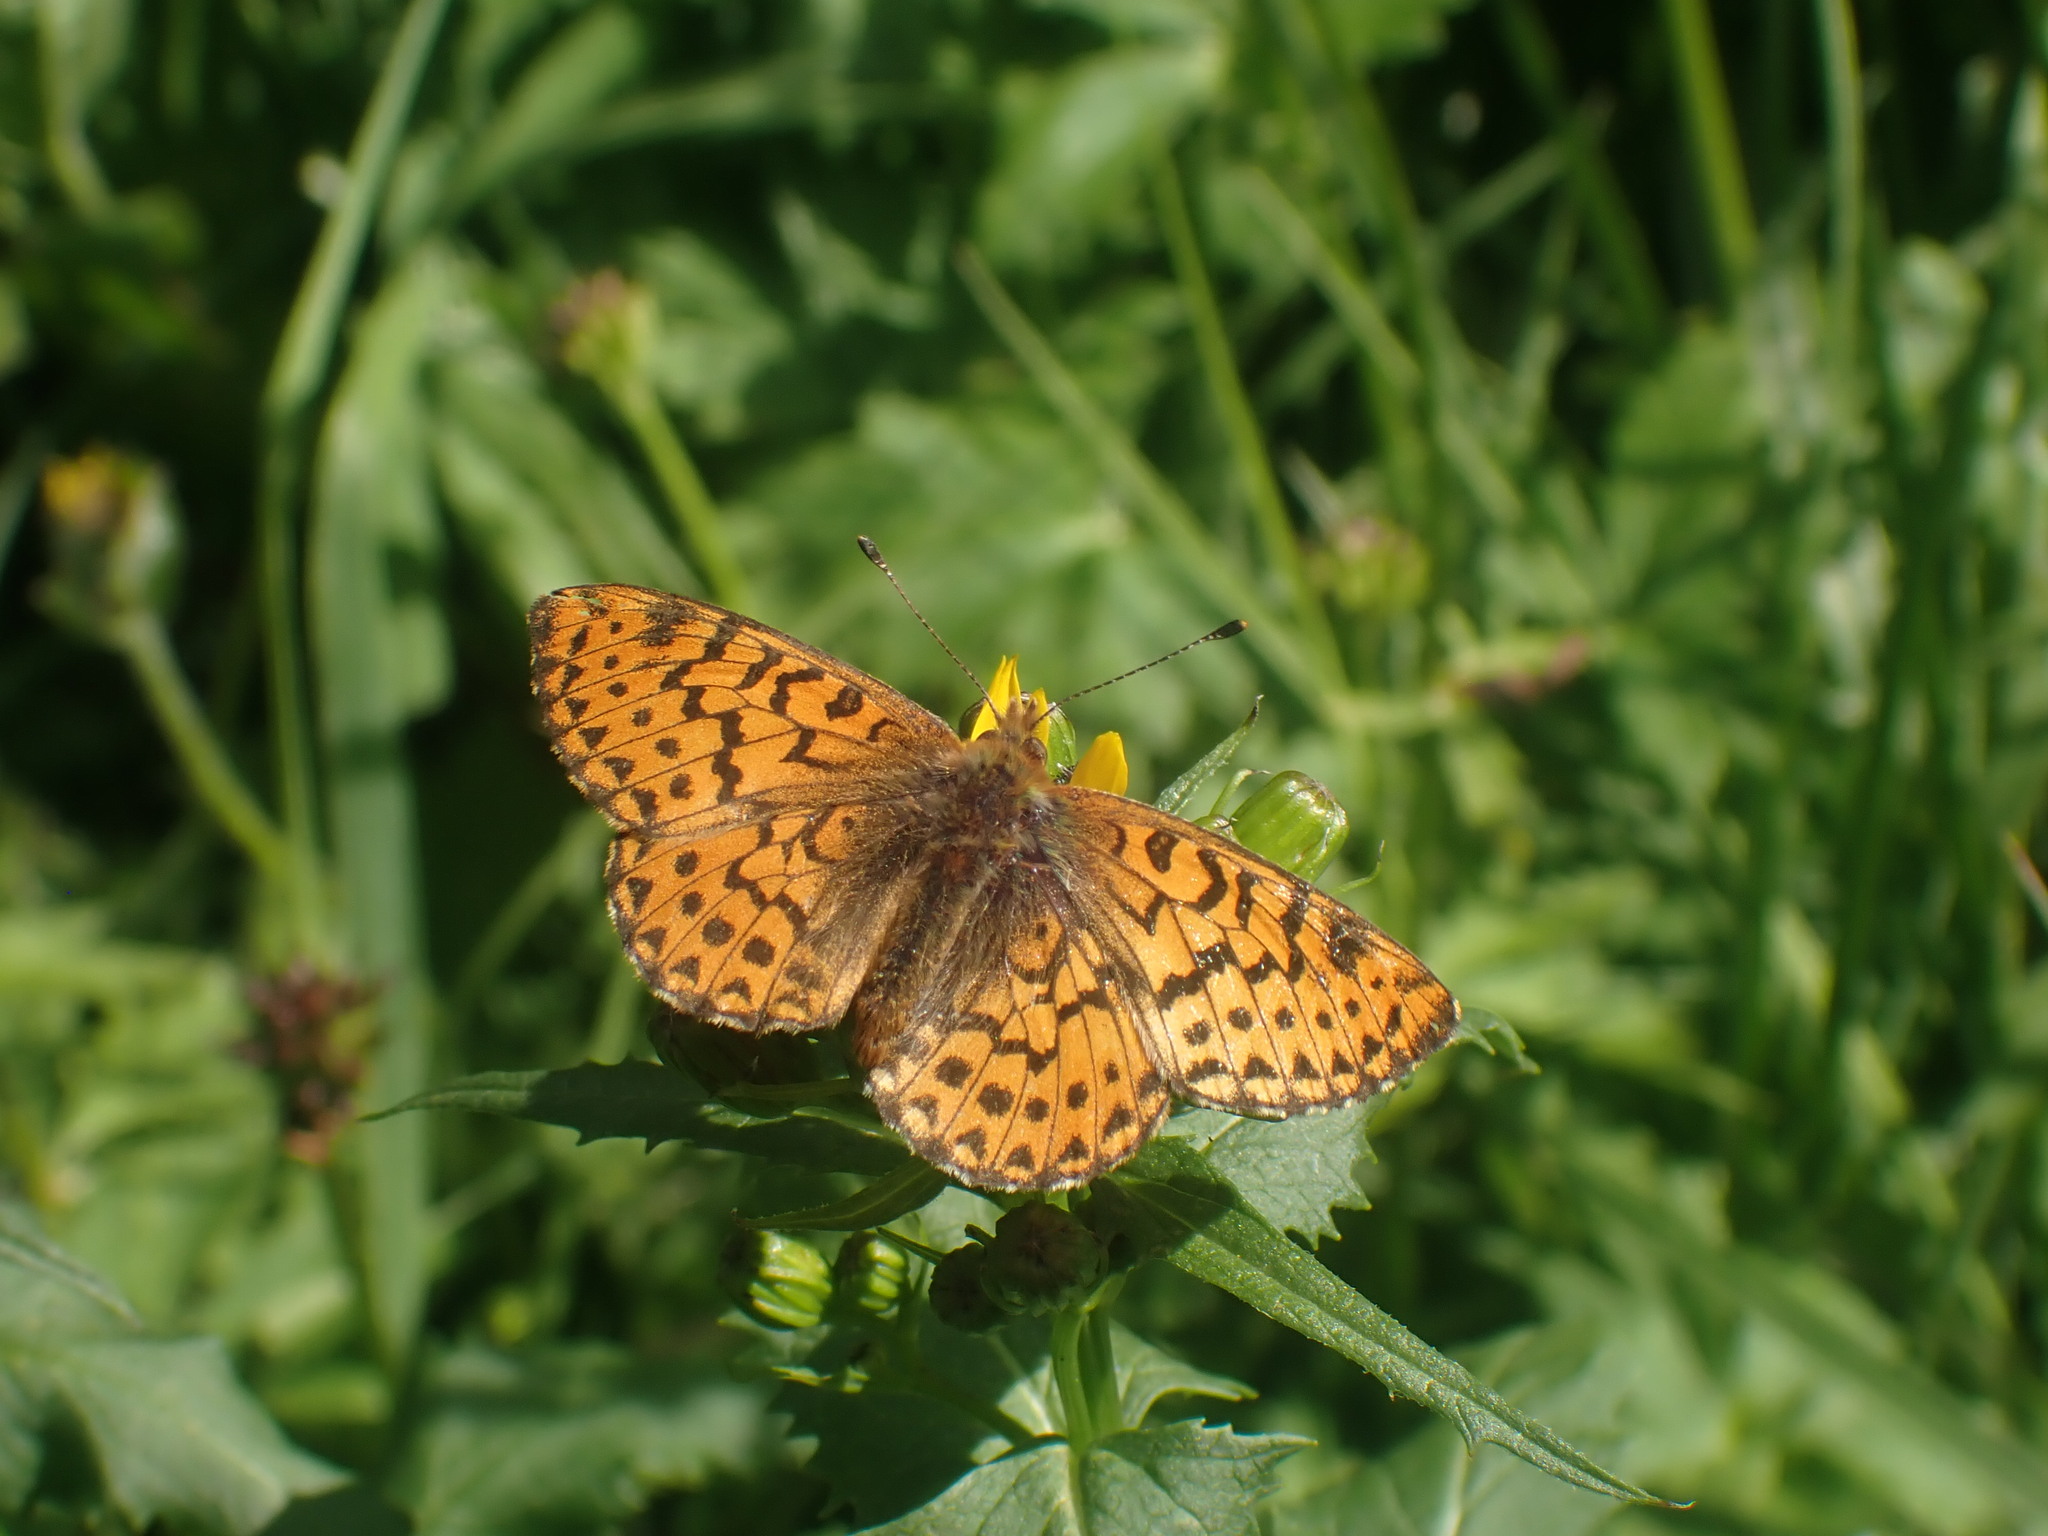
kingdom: Animalia
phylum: Arthropoda
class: Insecta
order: Lepidoptera
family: Nymphalidae
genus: Boloria
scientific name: Boloria chariclea
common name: Arctic fritillary
